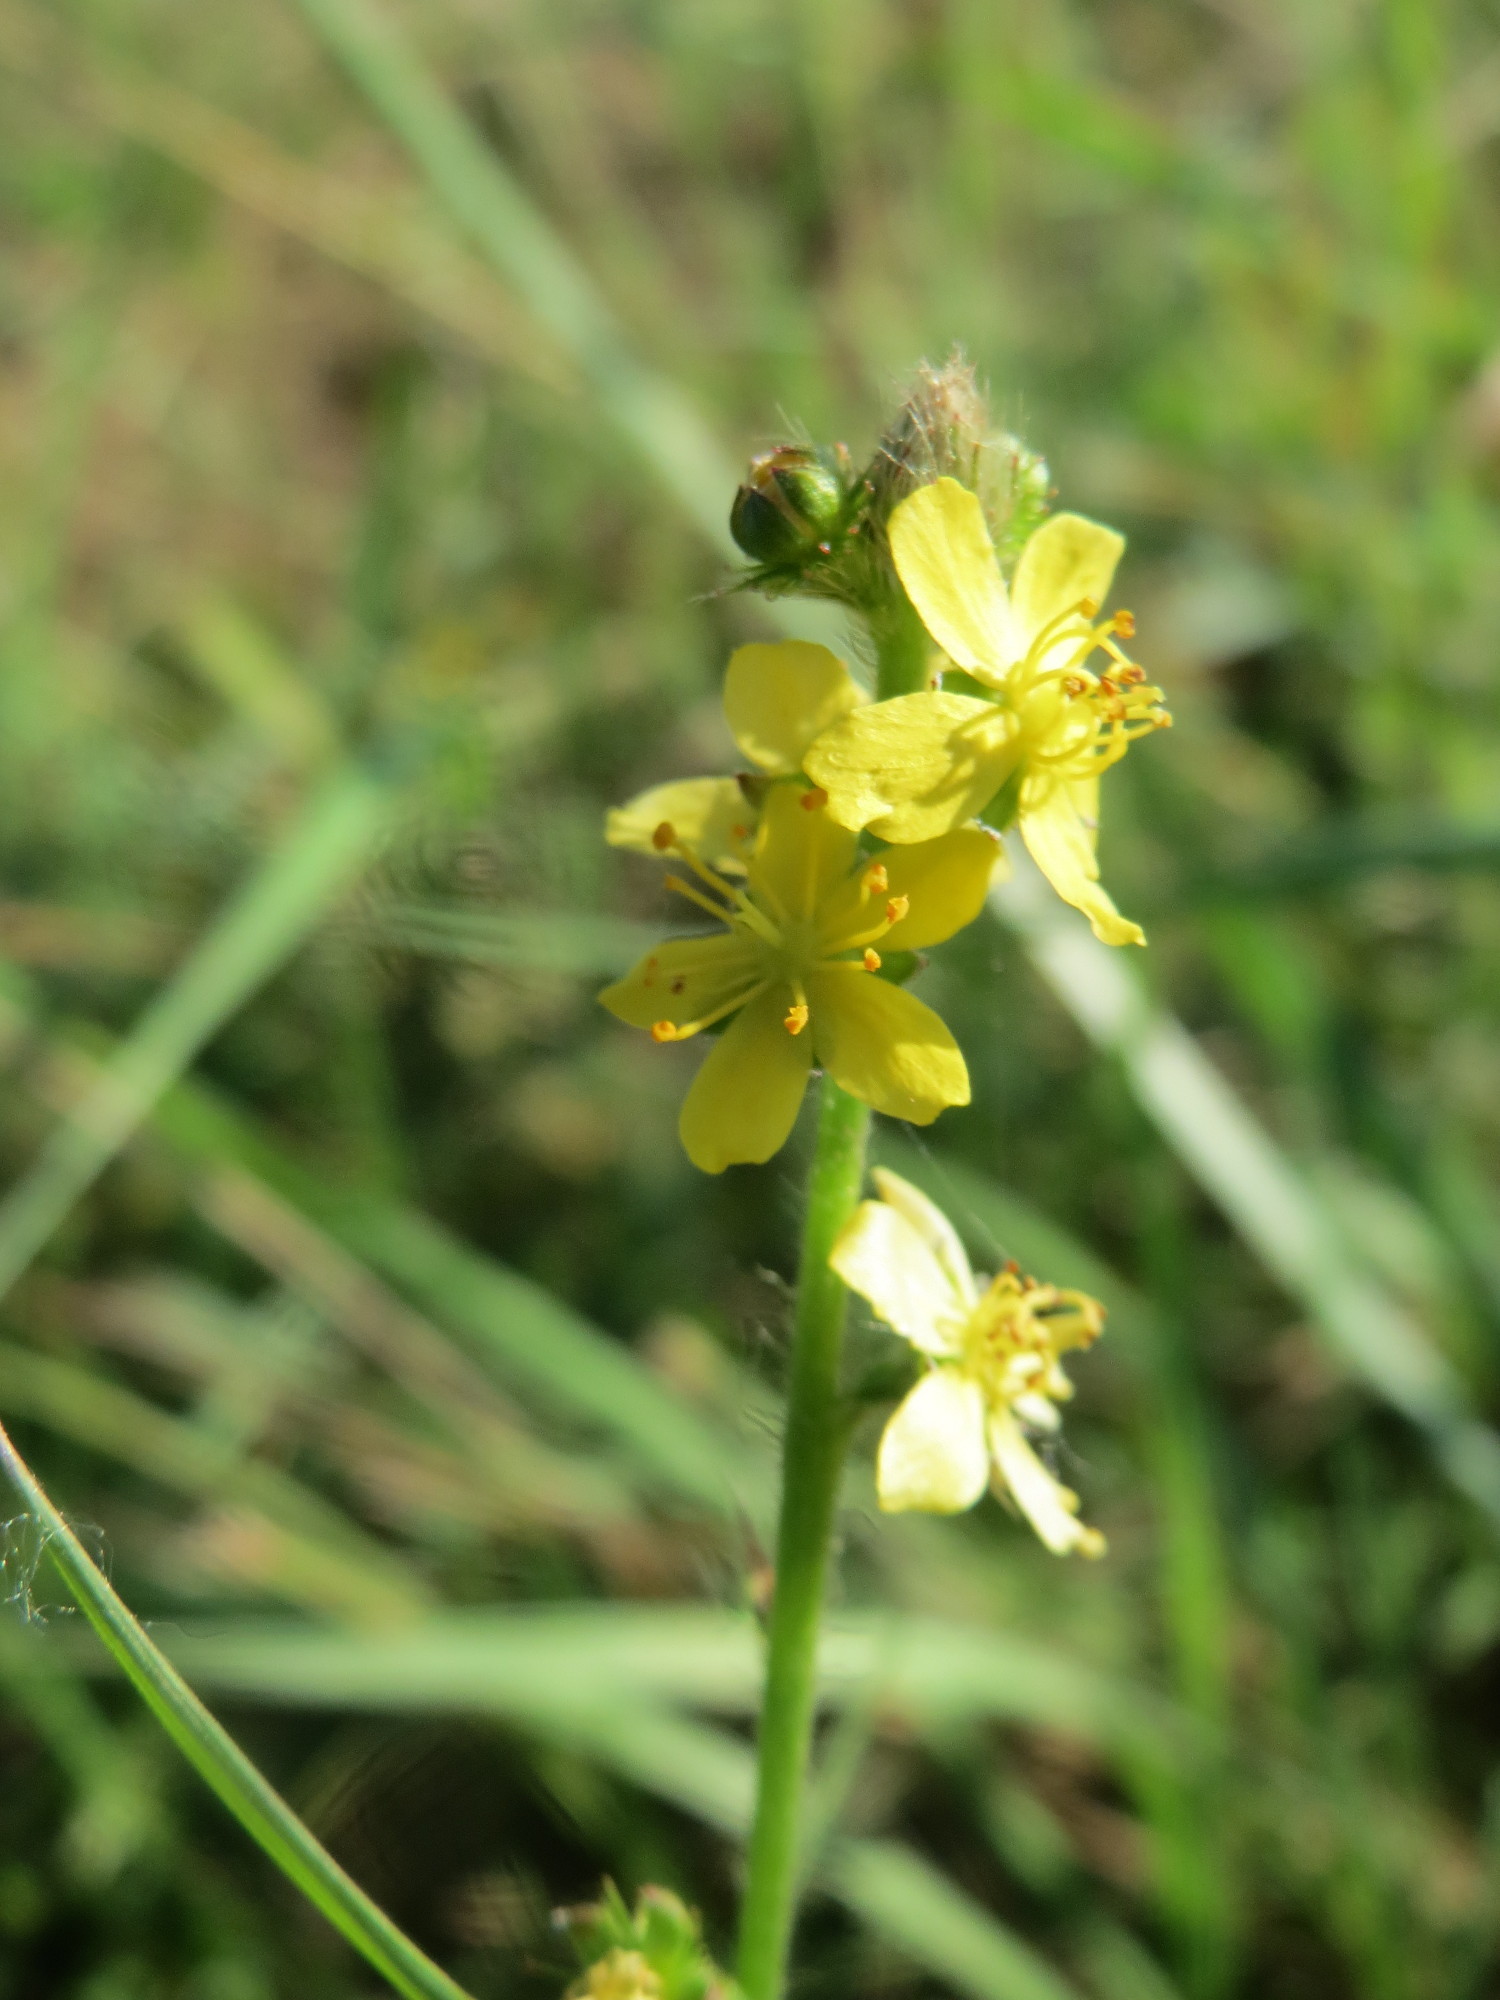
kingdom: Plantae
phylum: Tracheophyta
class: Magnoliopsida
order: Rosales
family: Rosaceae
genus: Agrimonia
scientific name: Agrimonia eupatoria
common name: Agrimony
